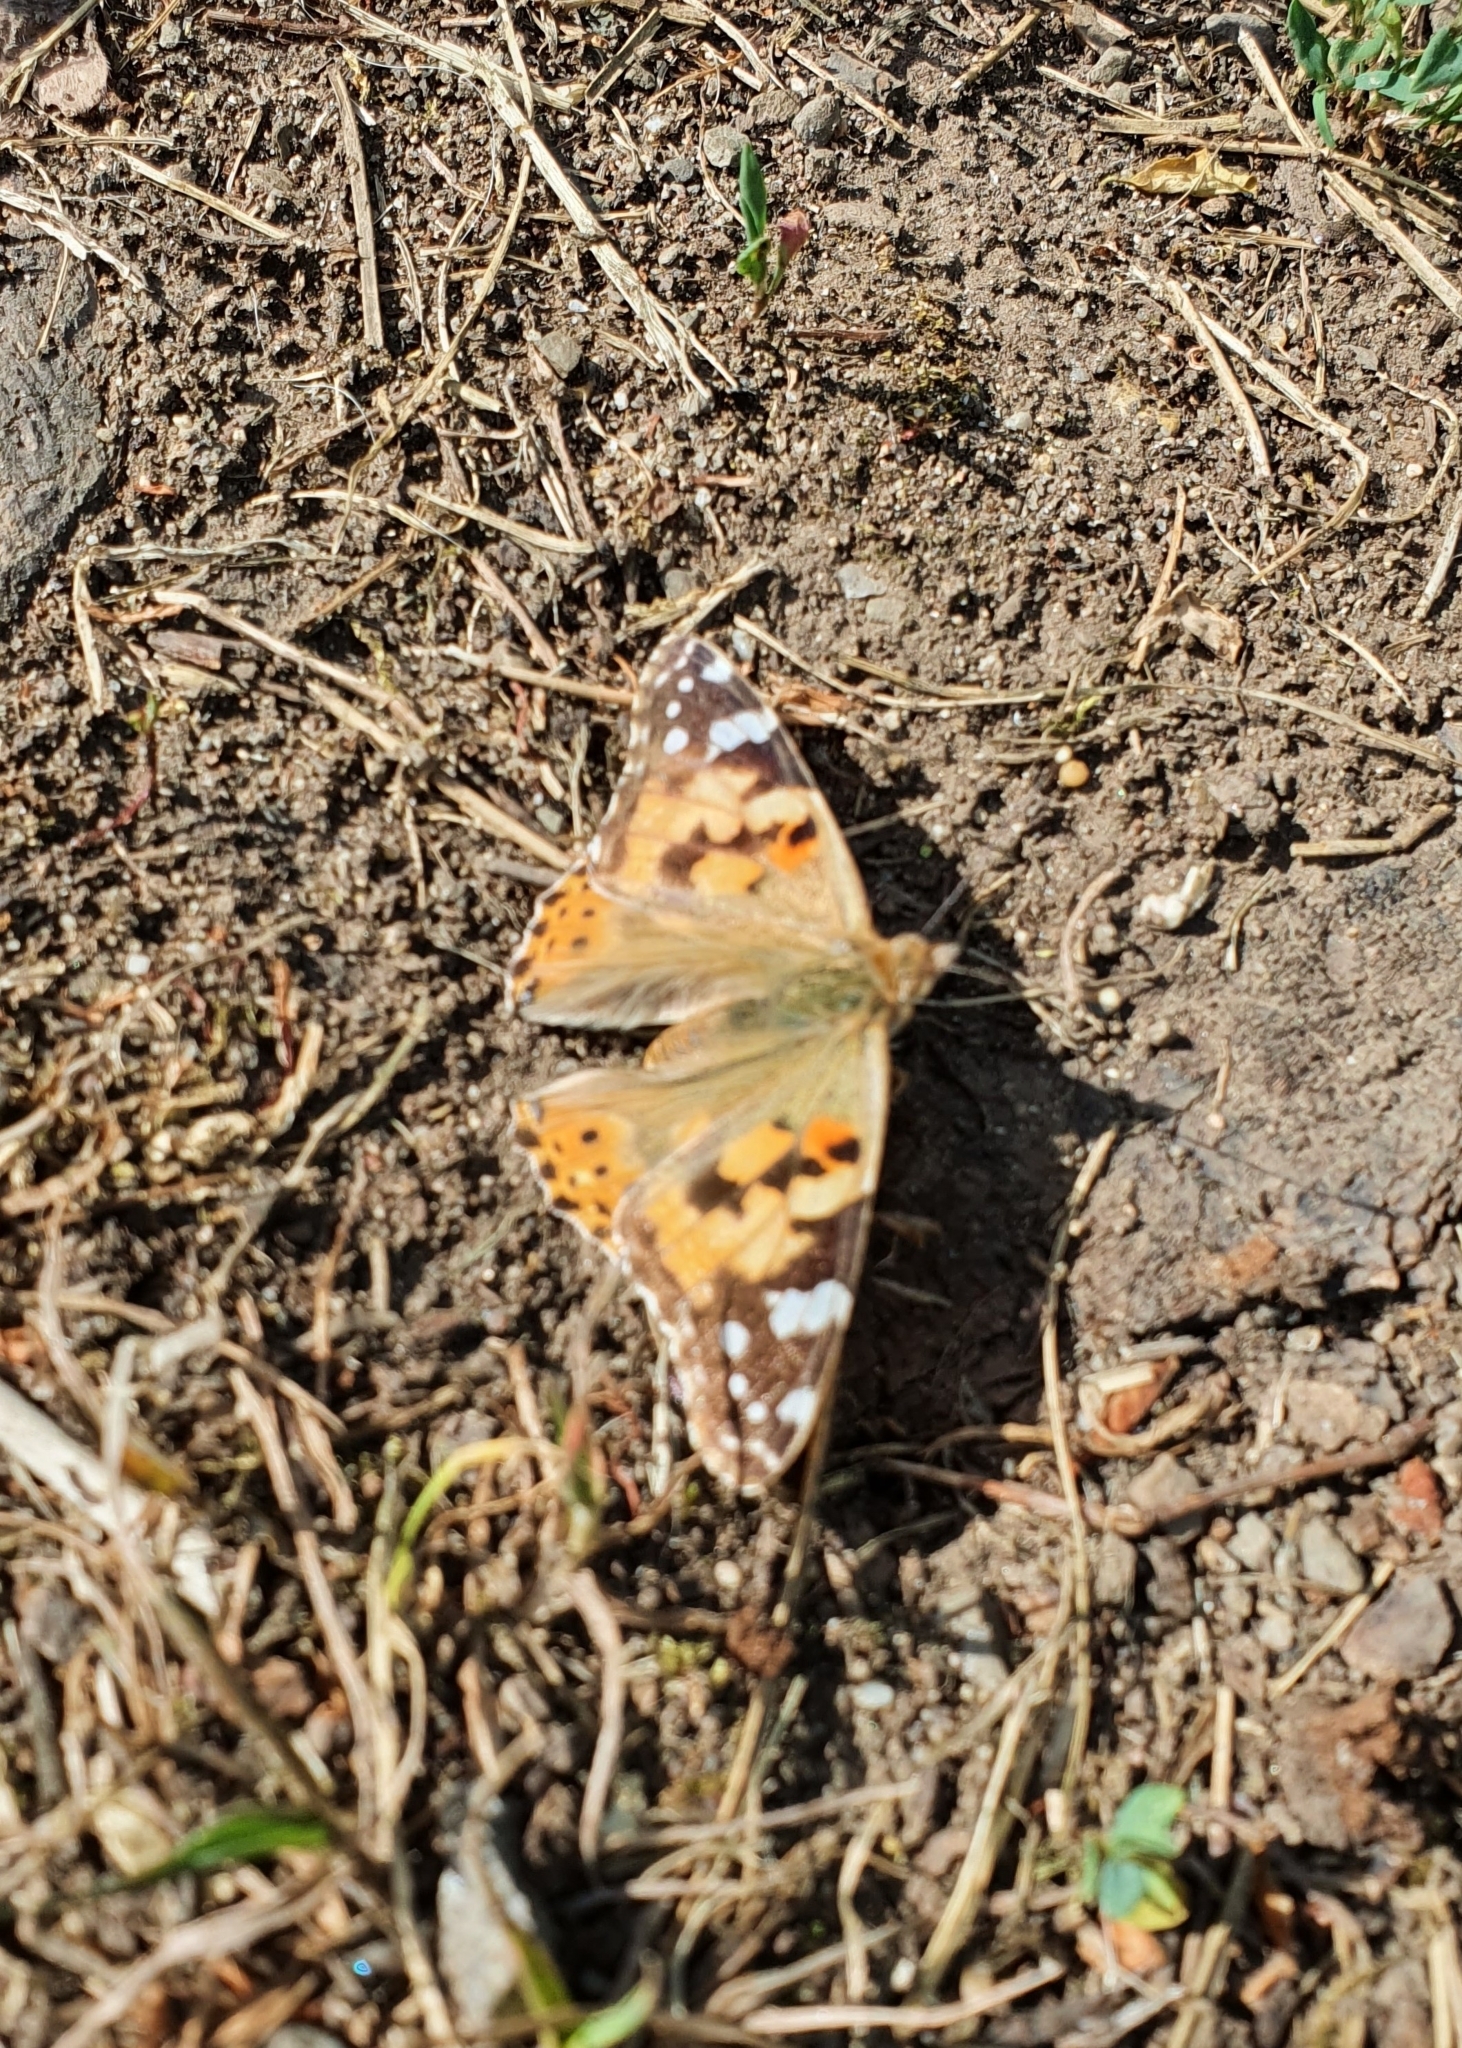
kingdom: Animalia
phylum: Arthropoda
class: Insecta
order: Lepidoptera
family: Nymphalidae
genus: Vanessa
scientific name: Vanessa cardui
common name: Painted lady
